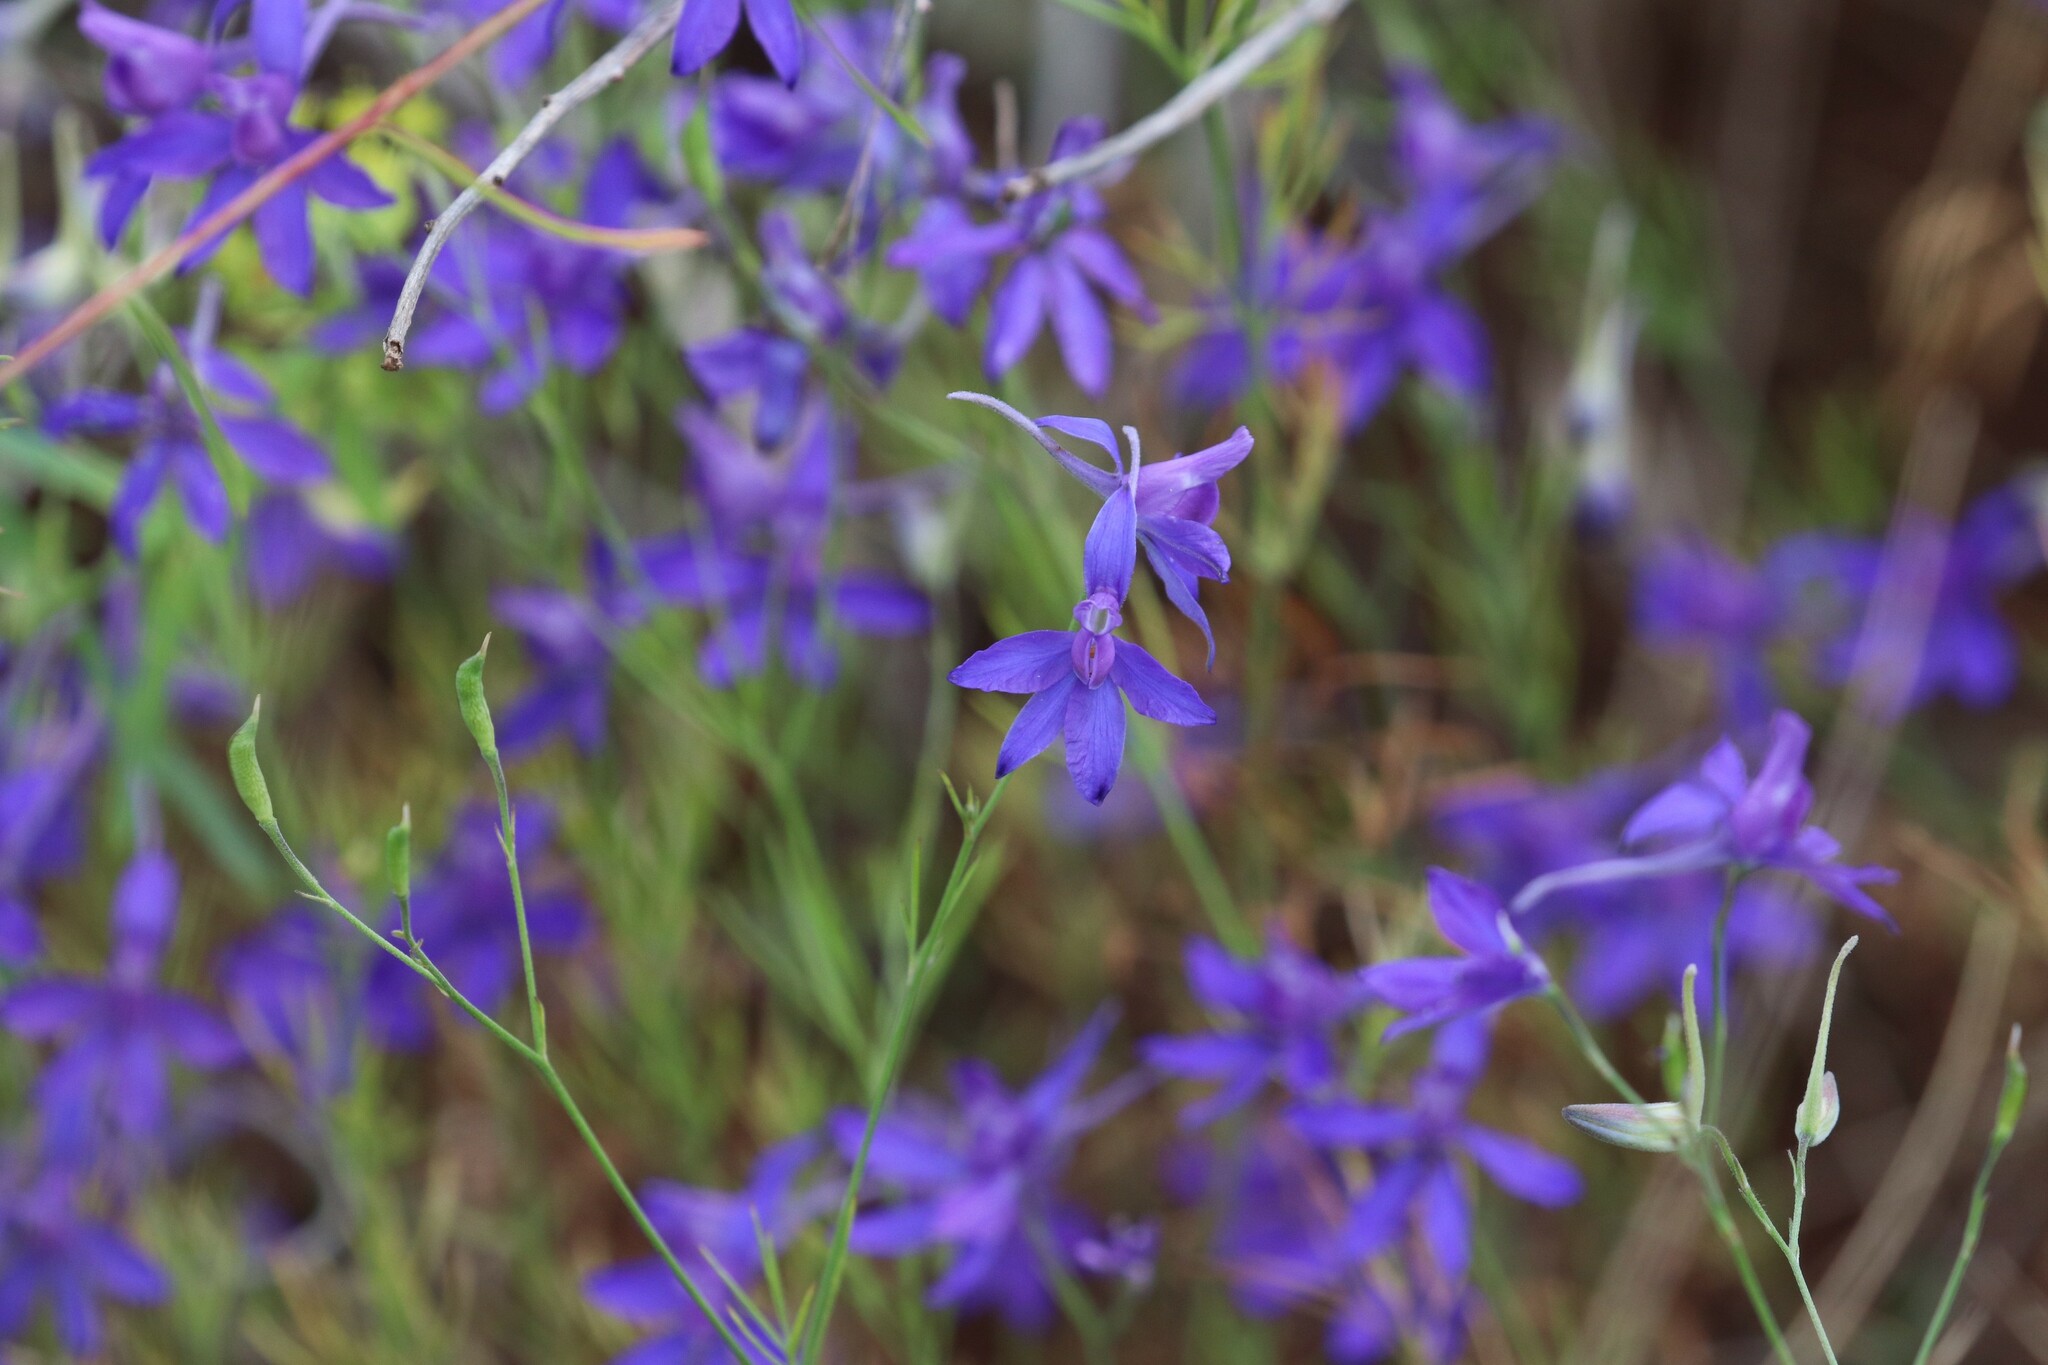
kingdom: Plantae
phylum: Tracheophyta
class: Magnoliopsida
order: Ranunculales
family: Ranunculaceae
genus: Delphinium
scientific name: Delphinium consolida
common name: Branching larkspur
